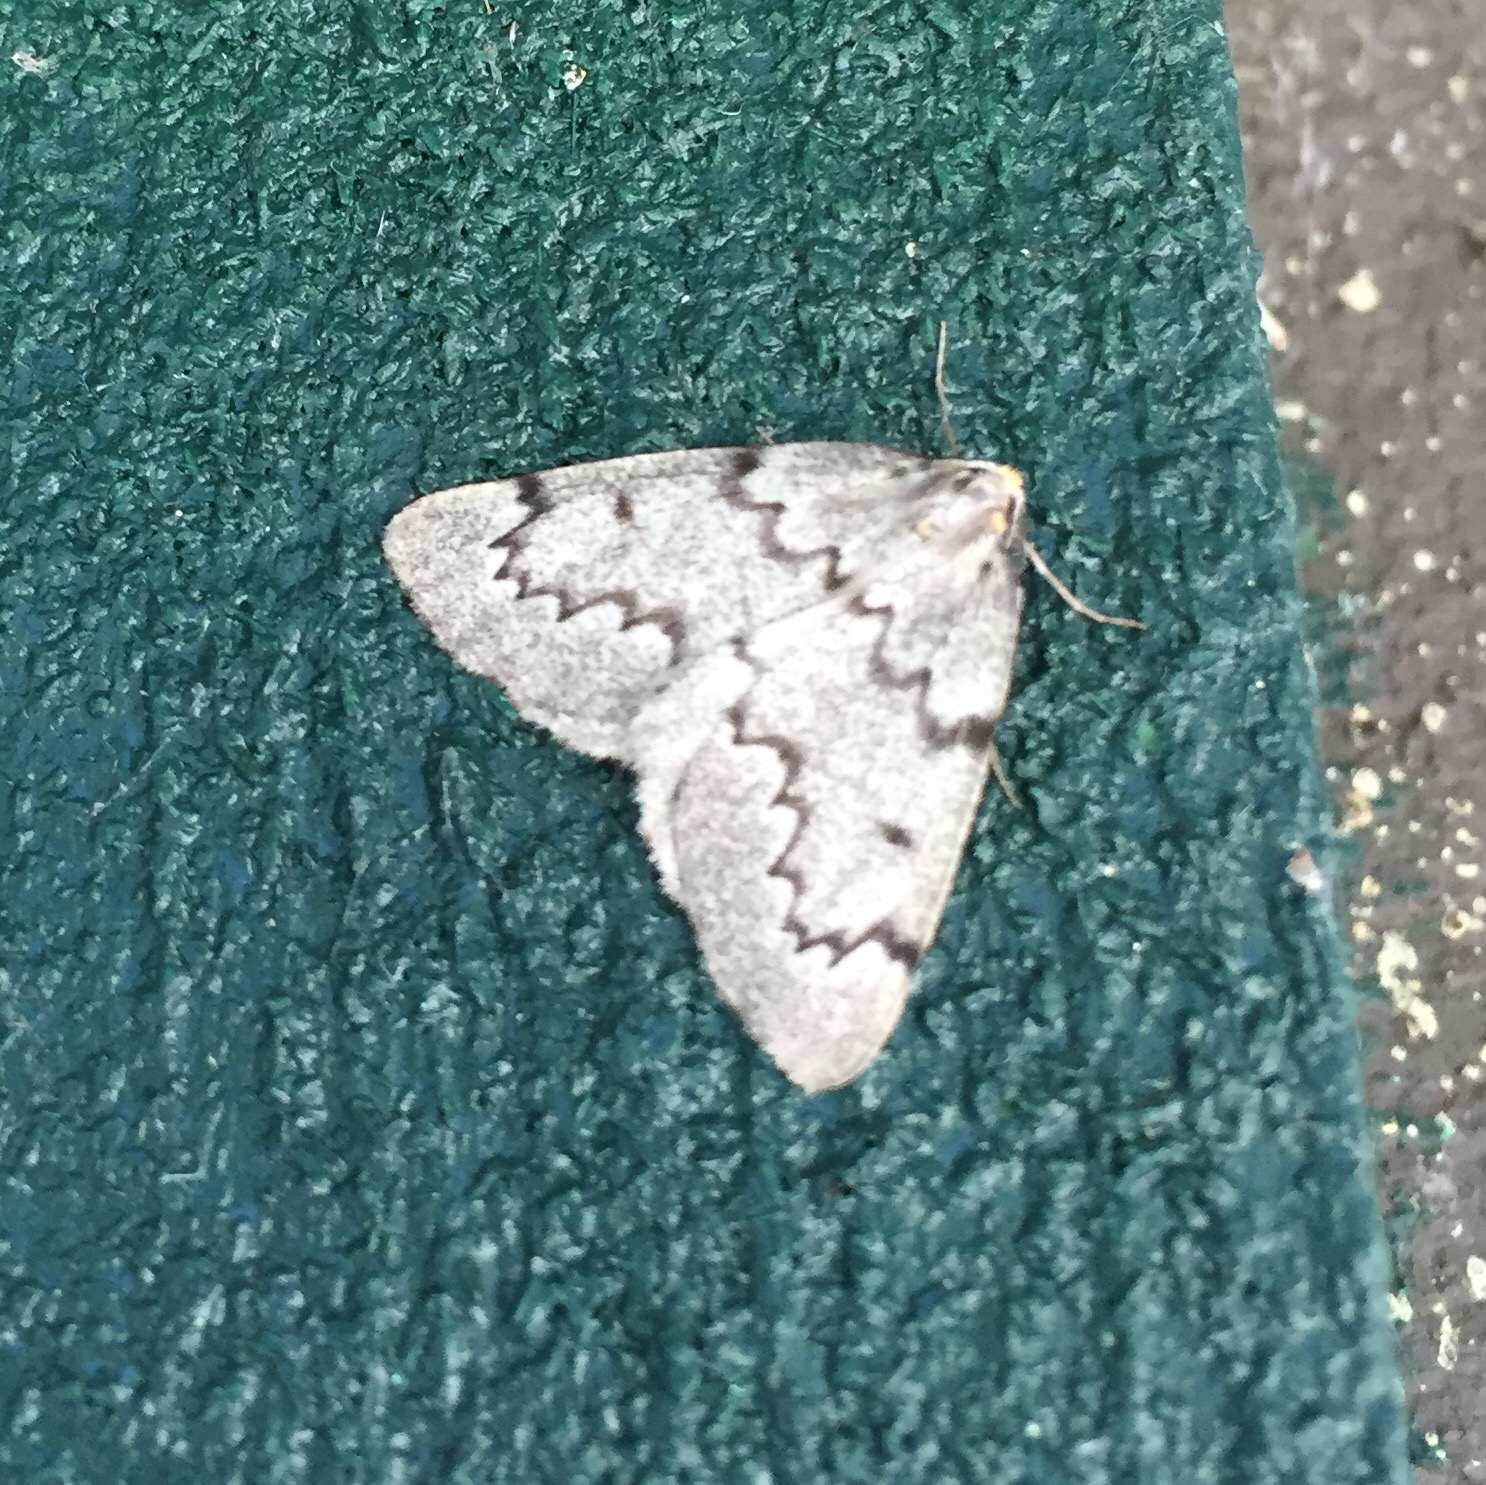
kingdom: Animalia
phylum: Arthropoda
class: Insecta
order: Lepidoptera
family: Geometridae
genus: Nepytia
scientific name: Nepytia canosaria
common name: False hemlock looper
